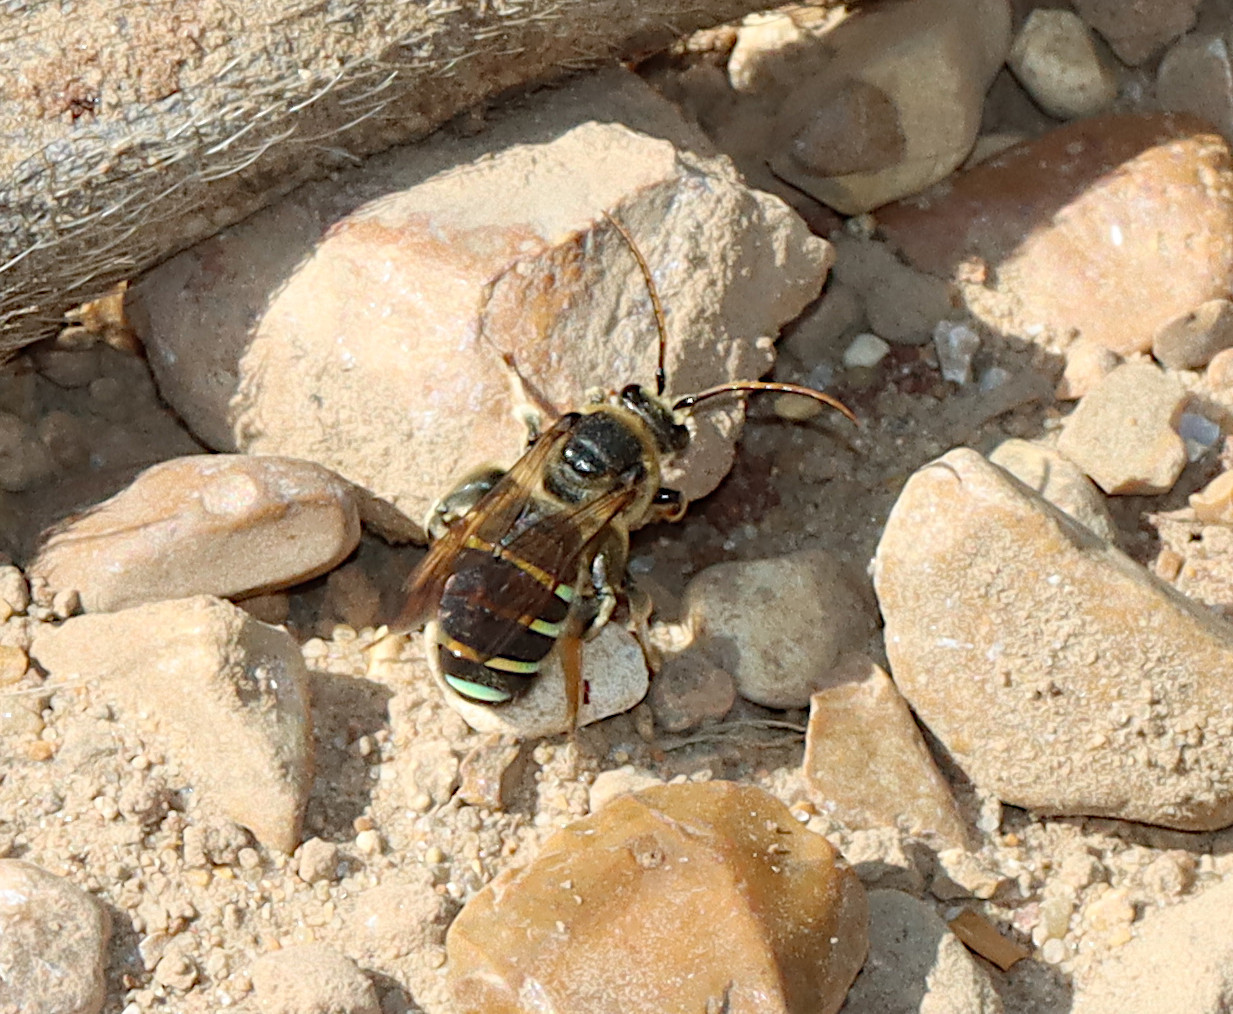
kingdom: Animalia
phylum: Arthropoda
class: Insecta
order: Hymenoptera
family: Halictidae
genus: Nomia
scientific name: Nomia nortoni
